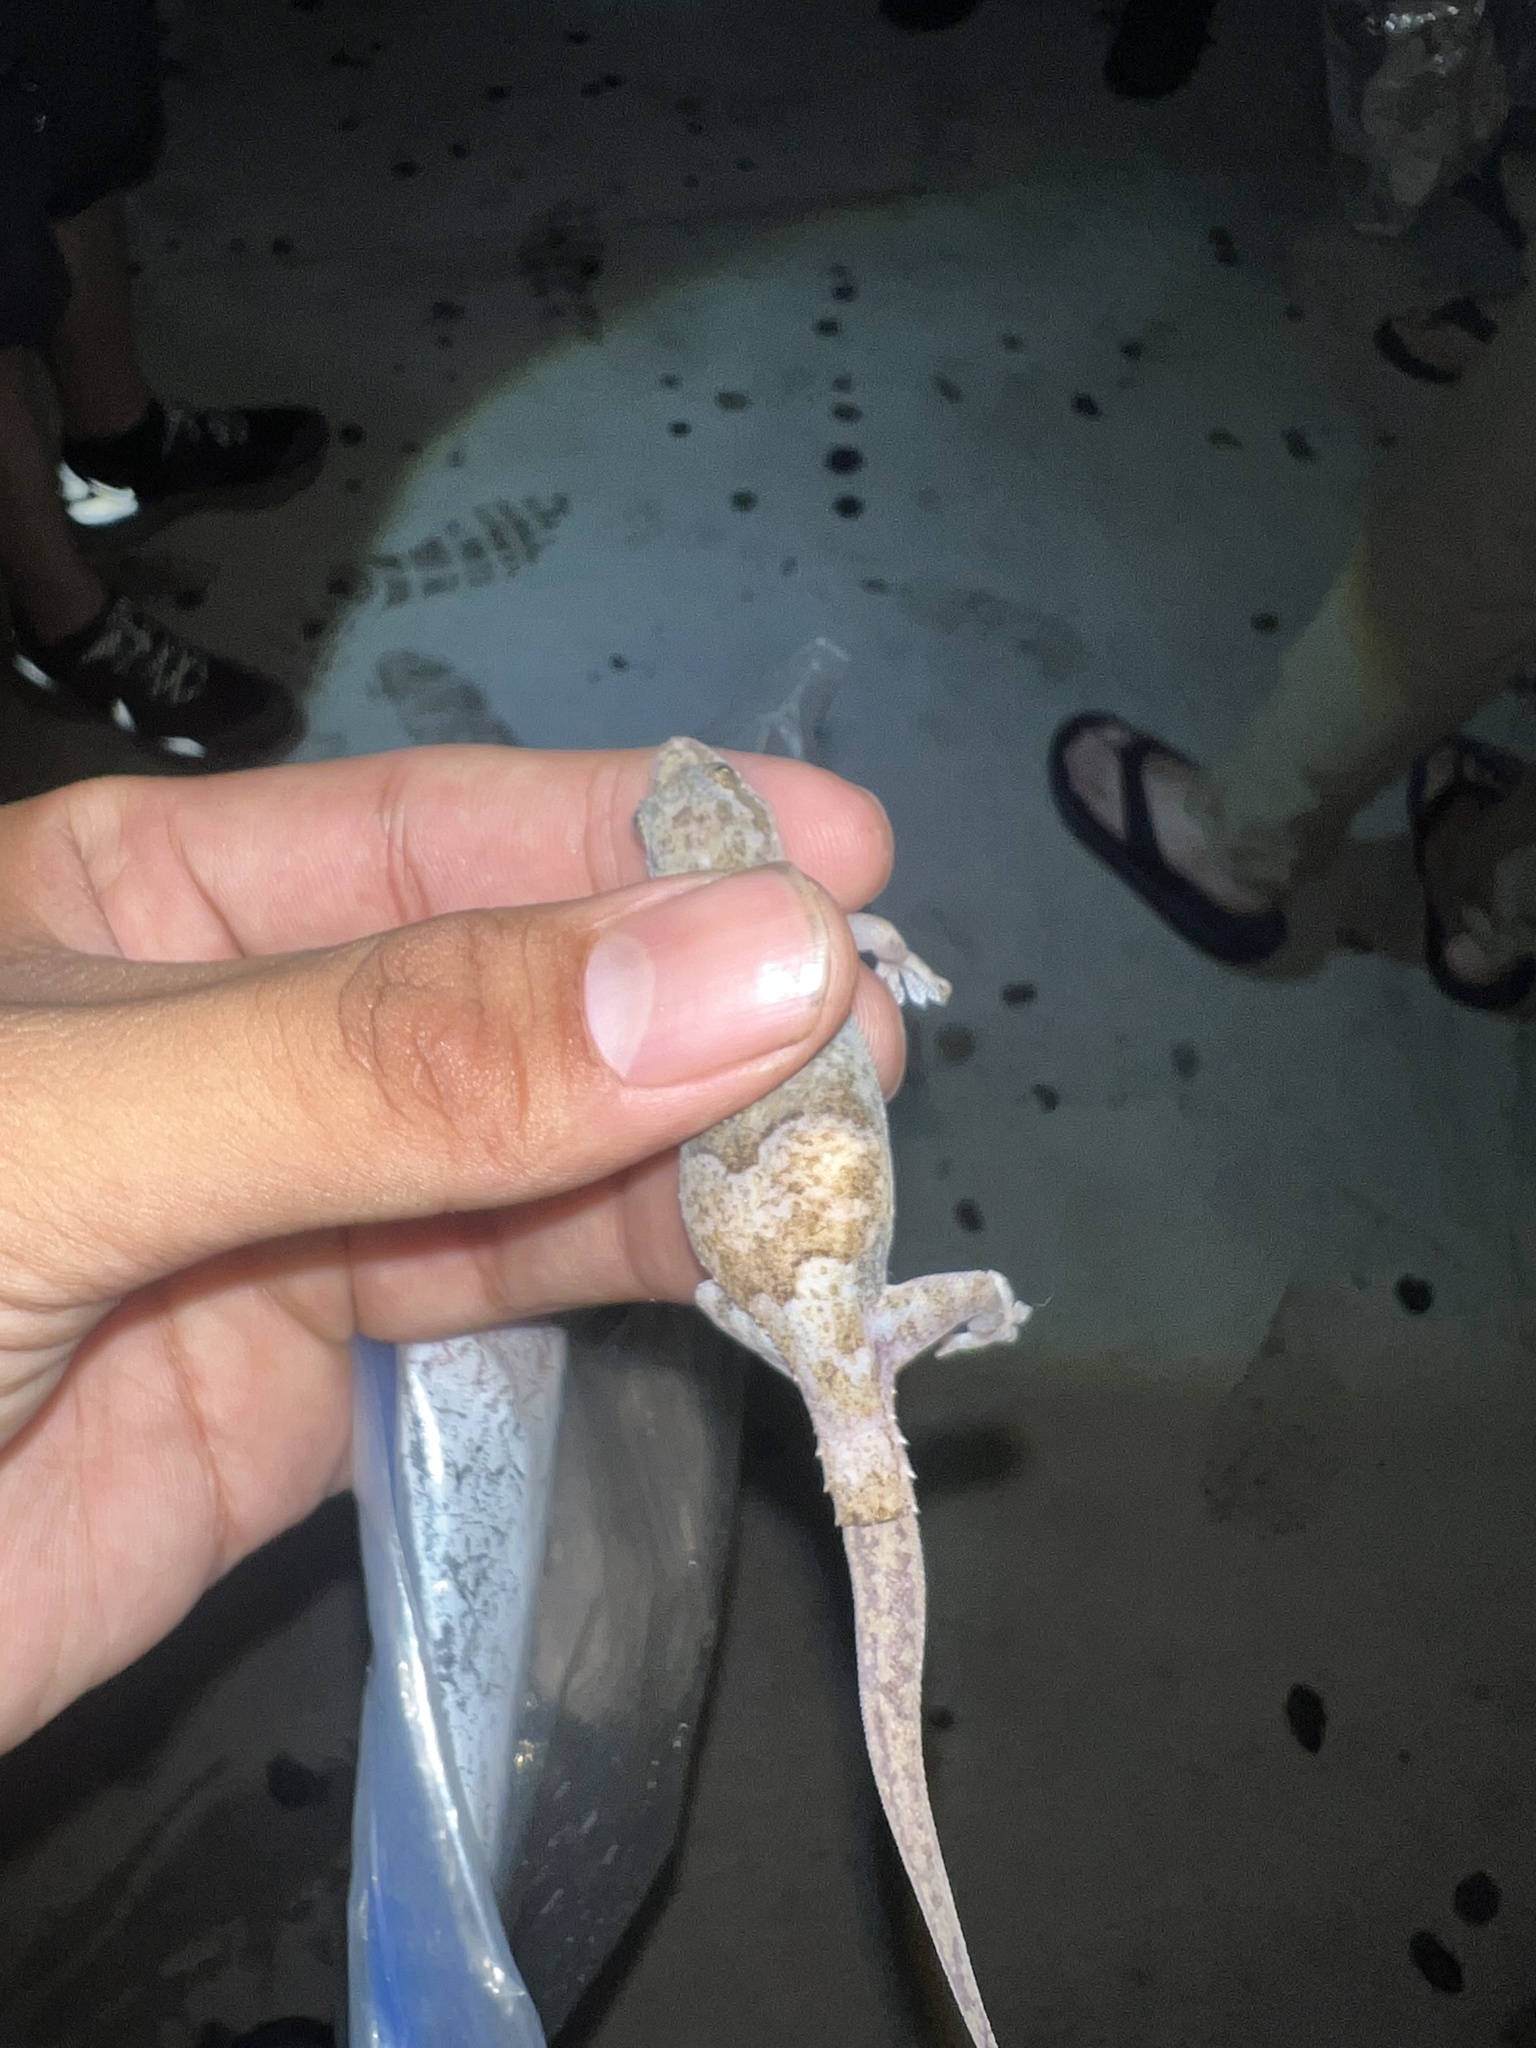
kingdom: Animalia
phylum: Chordata
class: Squamata
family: Gekkonidae
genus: Hemidactylus
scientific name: Hemidactylus mabouia
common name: House gecko
